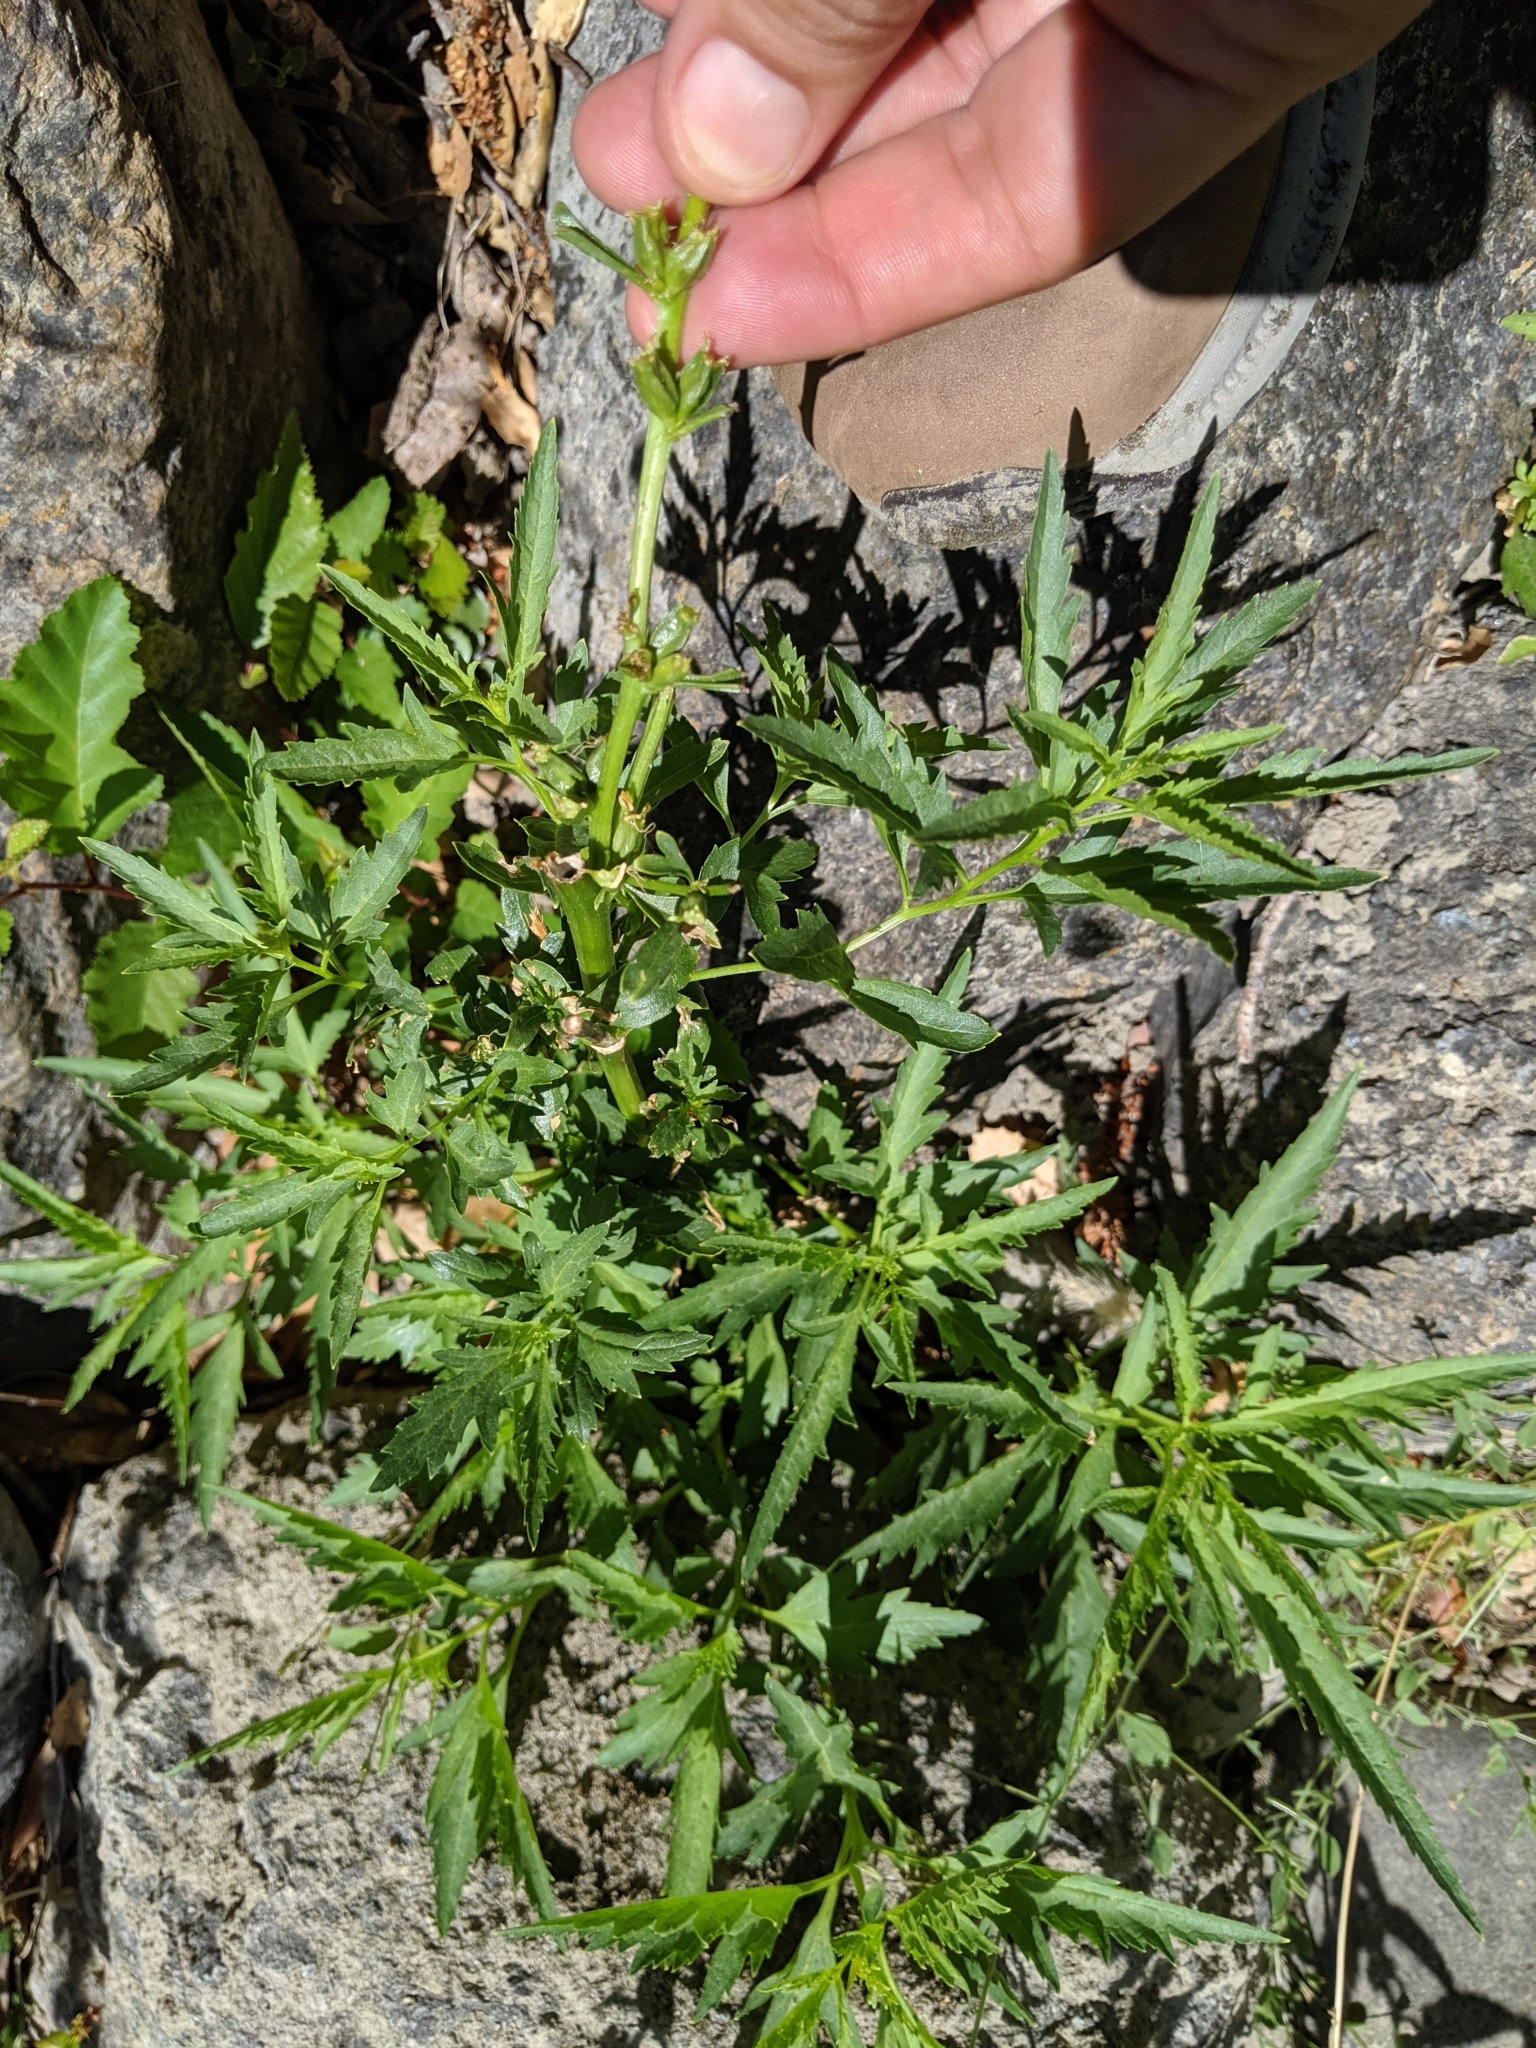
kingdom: Plantae
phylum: Tracheophyta
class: Magnoliopsida
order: Cucurbitales
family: Datiscaceae
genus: Datisca
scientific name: Datisca glomerata
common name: Durango-root
